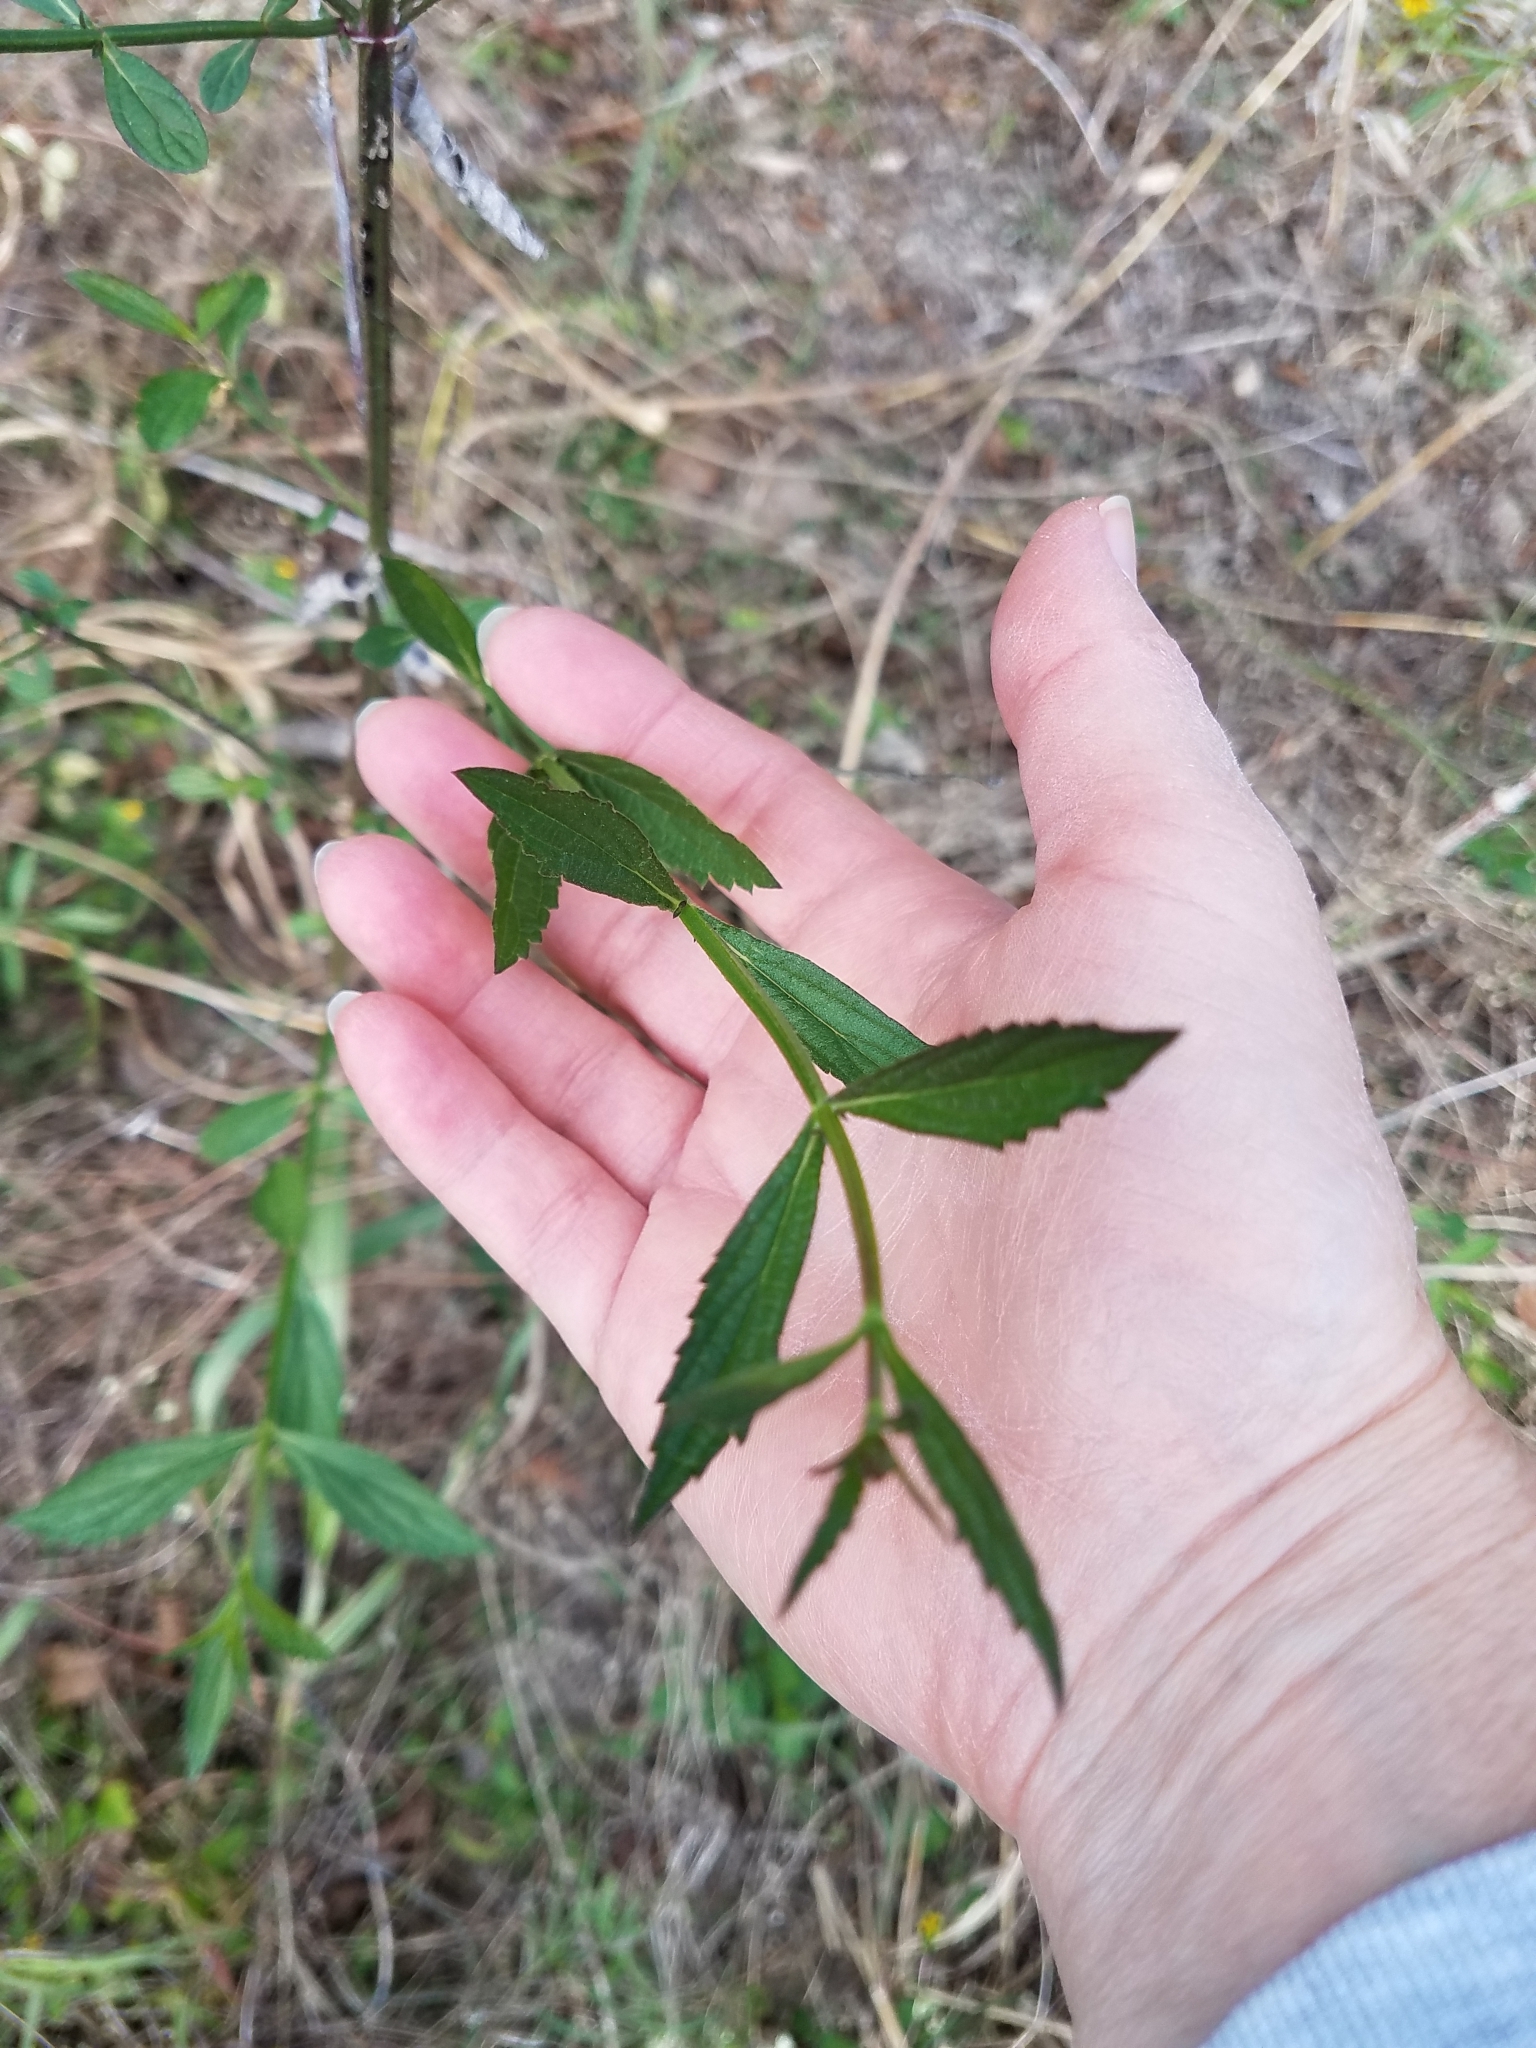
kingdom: Plantae
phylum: Tracheophyta
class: Magnoliopsida
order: Lamiales
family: Verbenaceae
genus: Verbena
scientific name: Verbena brasiliensis
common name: Brazilian vervain
